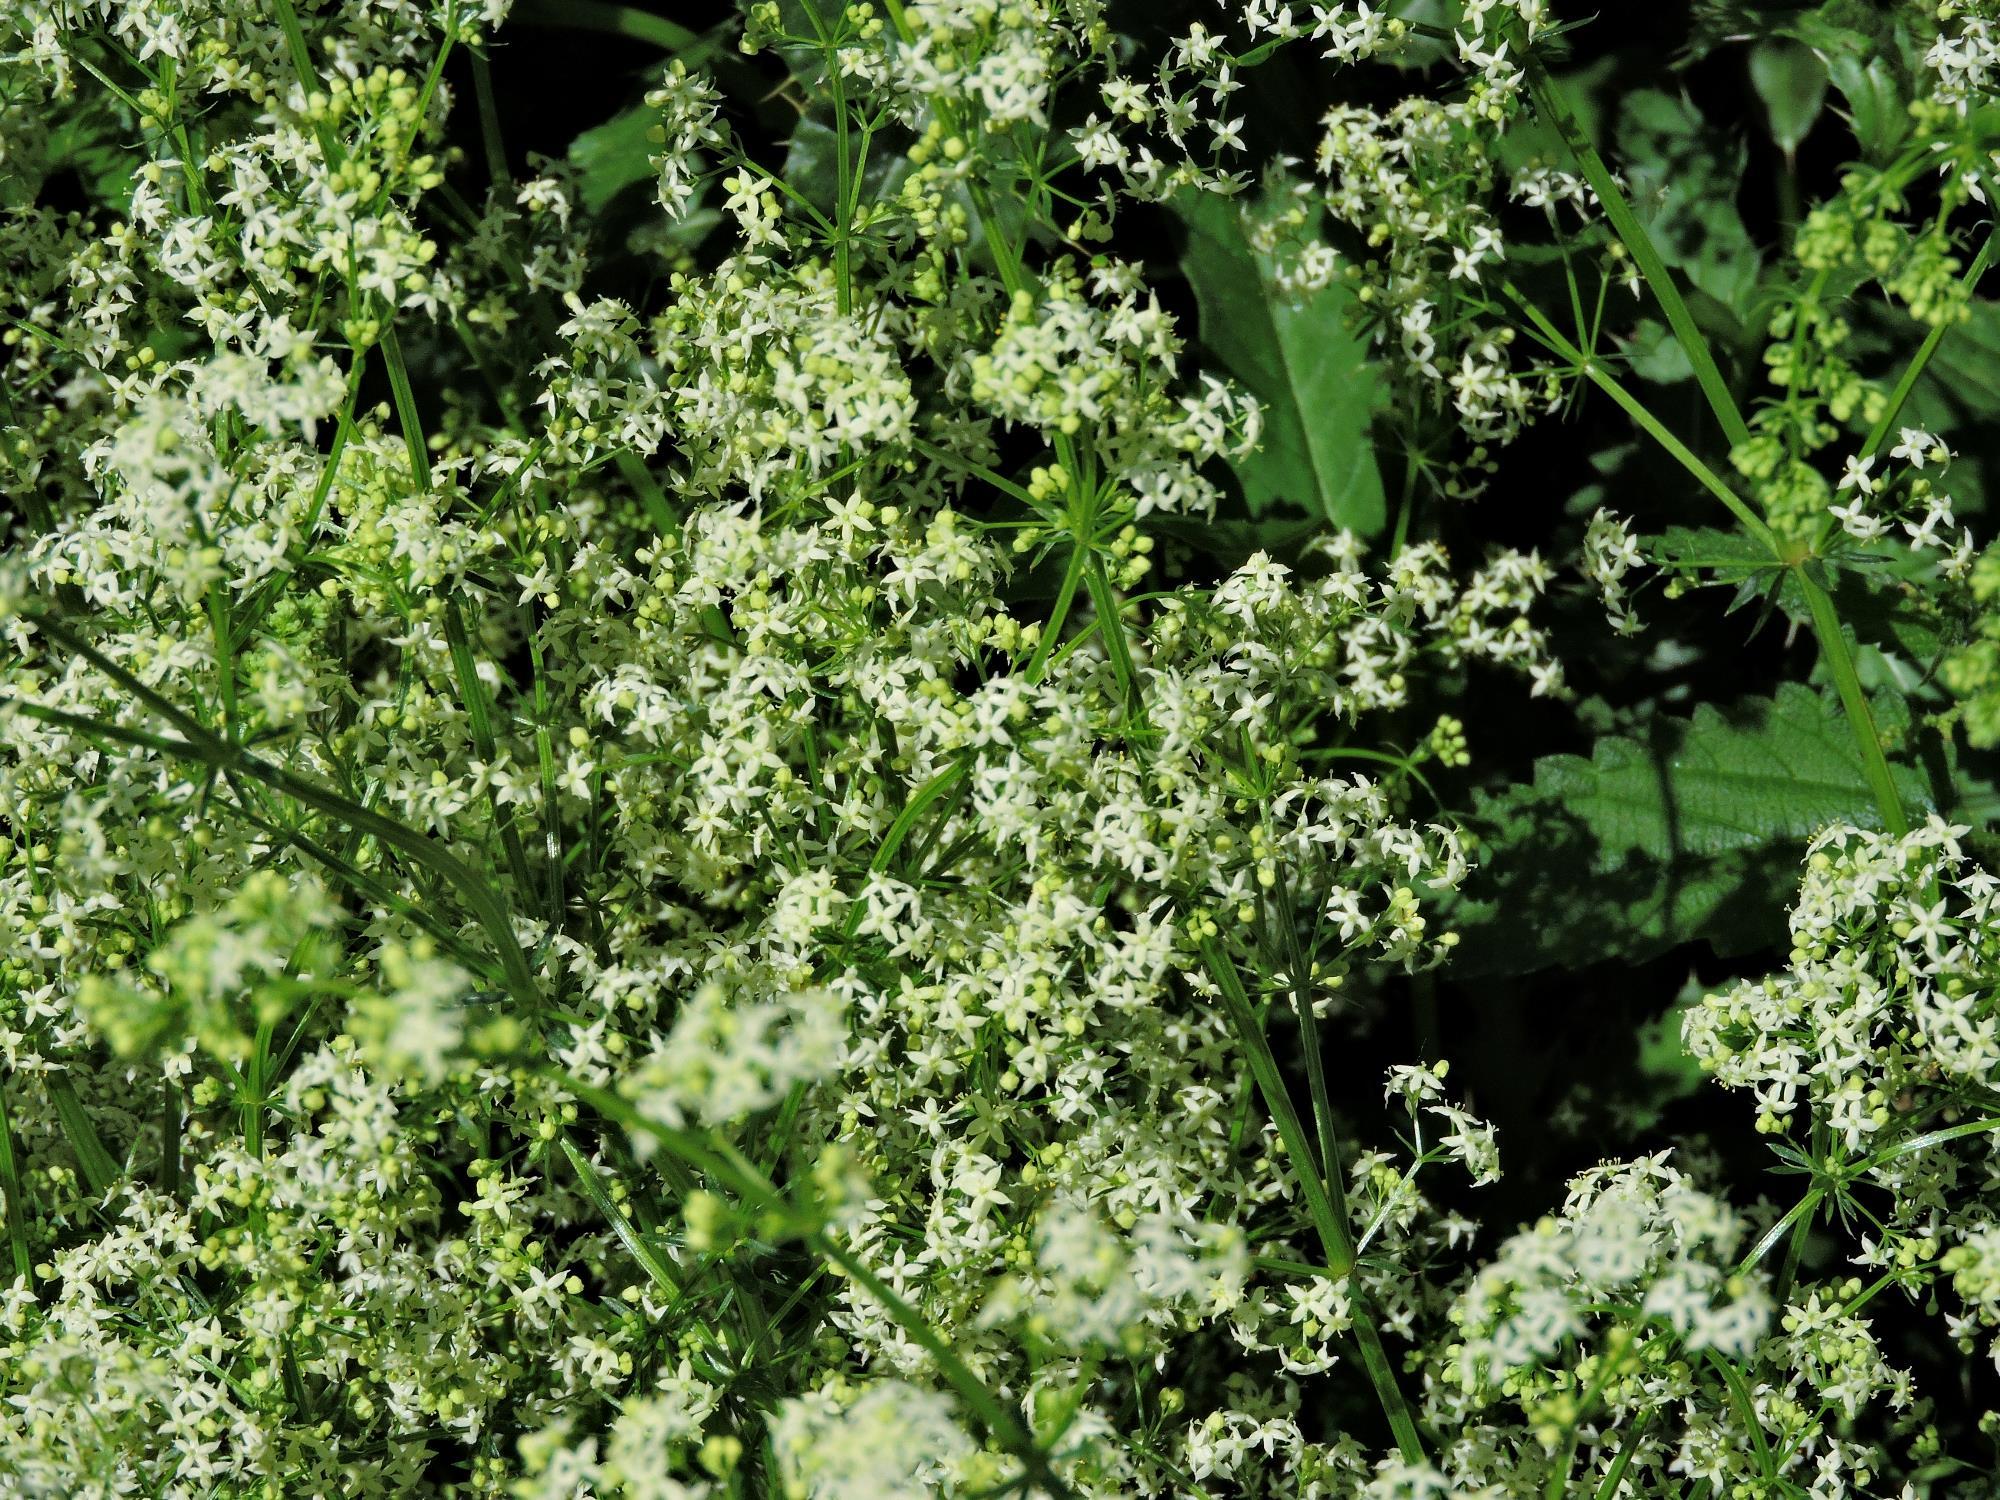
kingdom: Plantae
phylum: Tracheophyta
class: Magnoliopsida
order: Gentianales
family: Rubiaceae
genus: Galium
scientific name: Galium mollugo
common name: Hedge bedstraw
